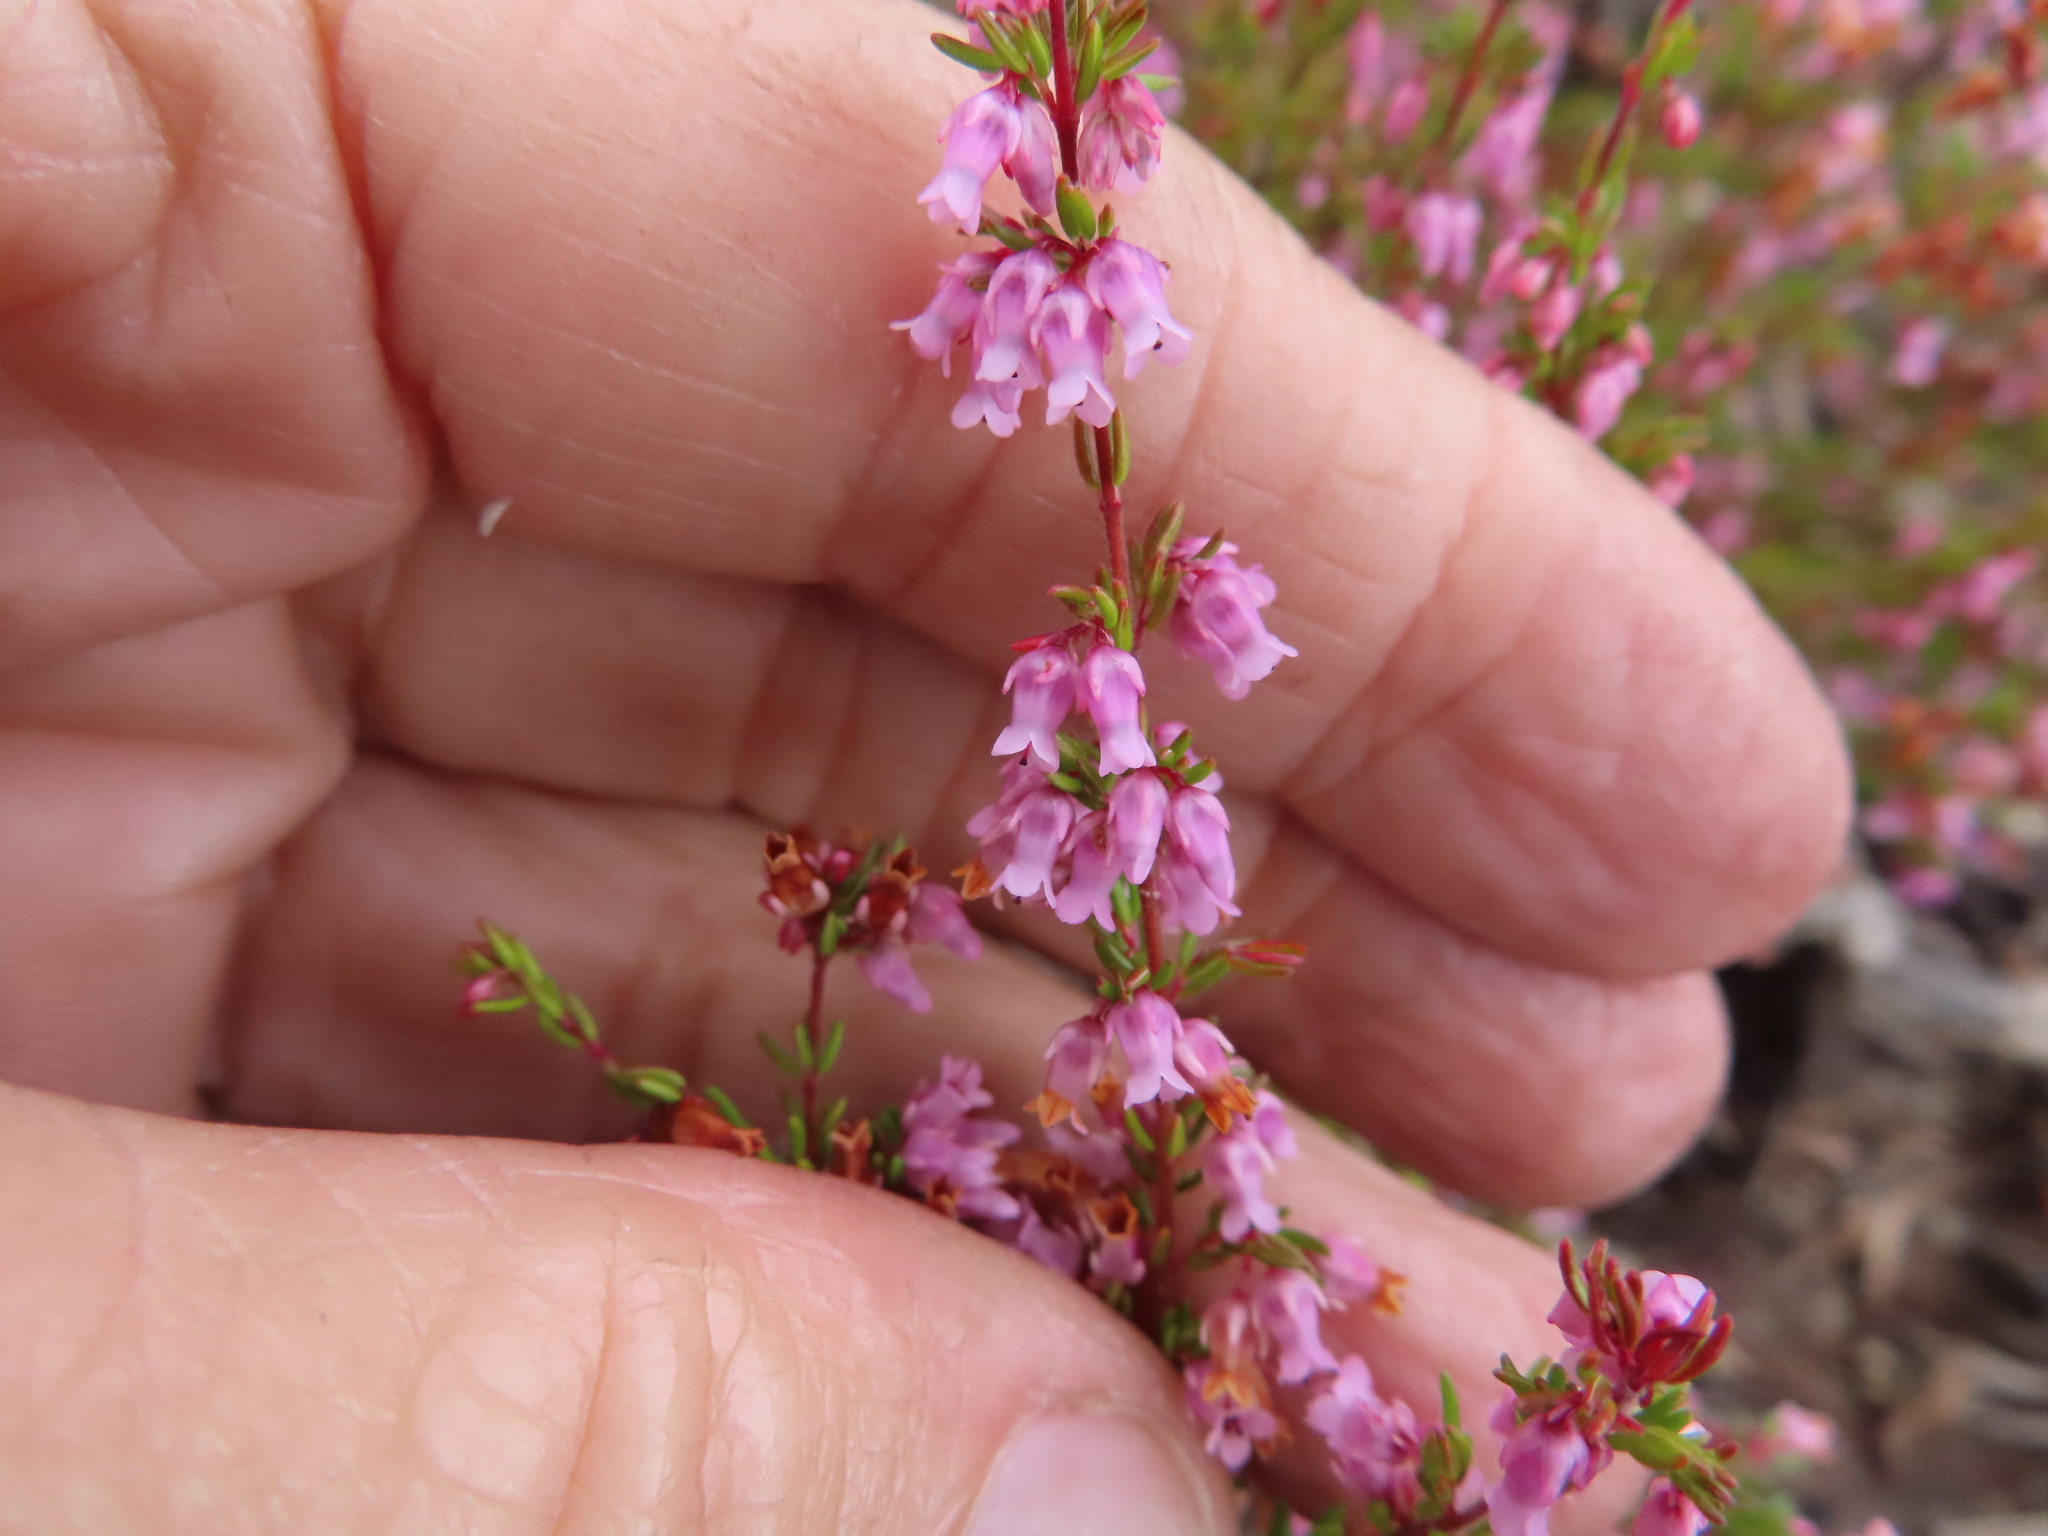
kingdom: Plantae
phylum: Tracheophyta
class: Magnoliopsida
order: Ericales
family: Ericaceae
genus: Erica
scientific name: Erica intervallaris
